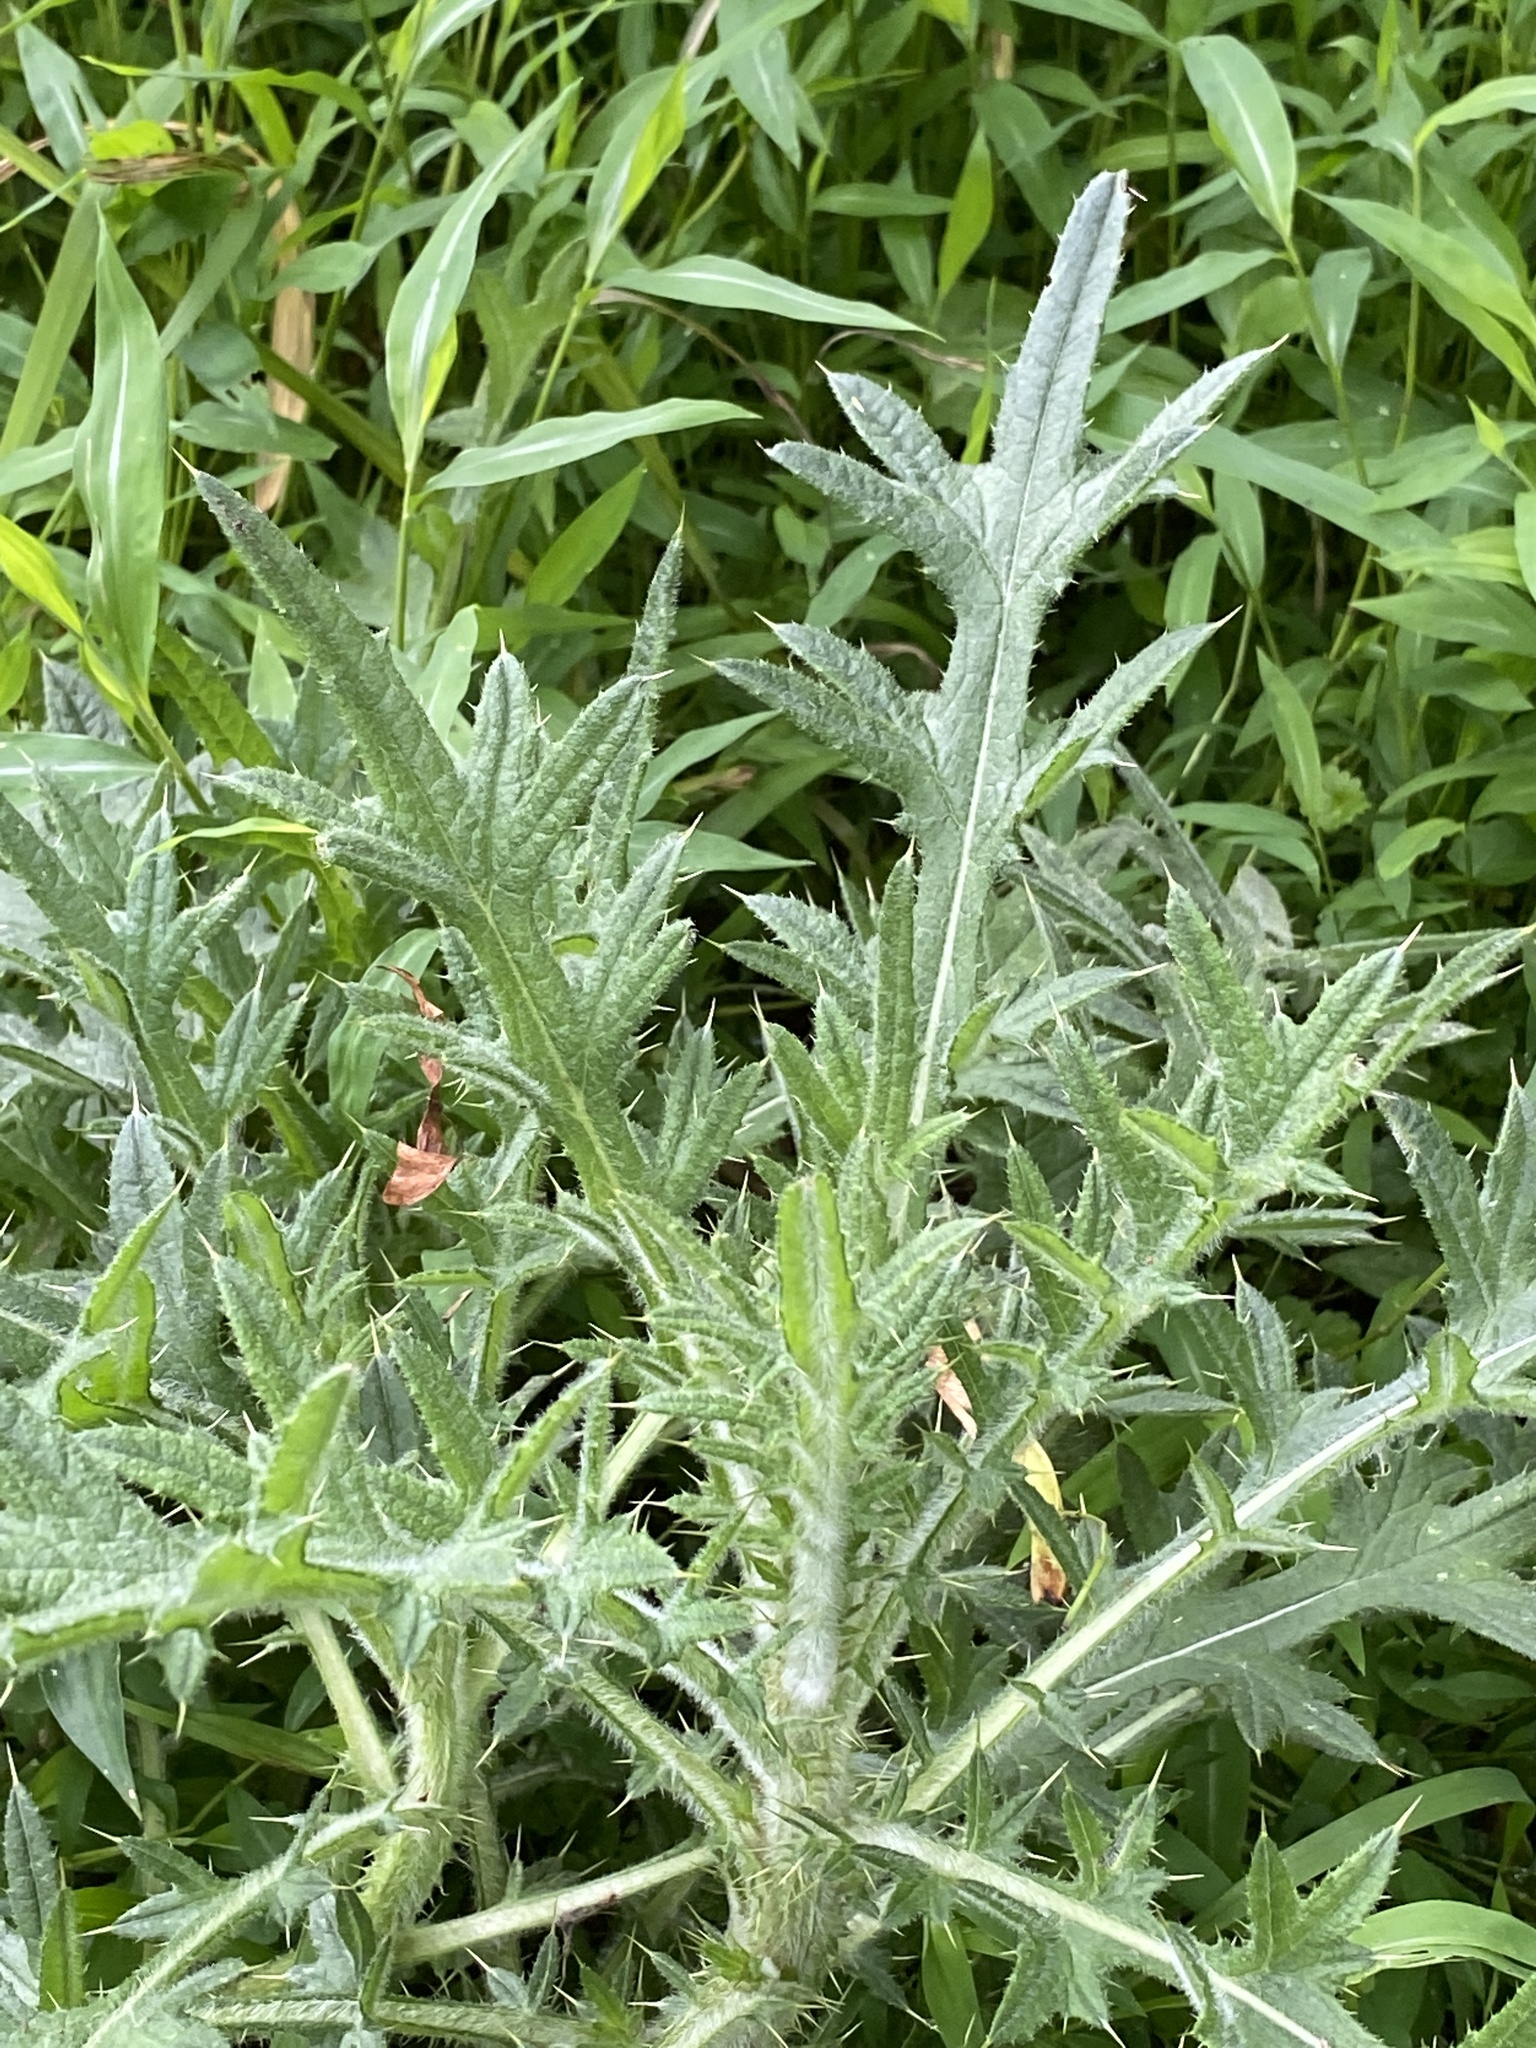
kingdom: Plantae
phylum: Tracheophyta
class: Magnoliopsida
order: Asterales
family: Asteraceae
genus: Cirsium
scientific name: Cirsium vulgare
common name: Bull thistle
